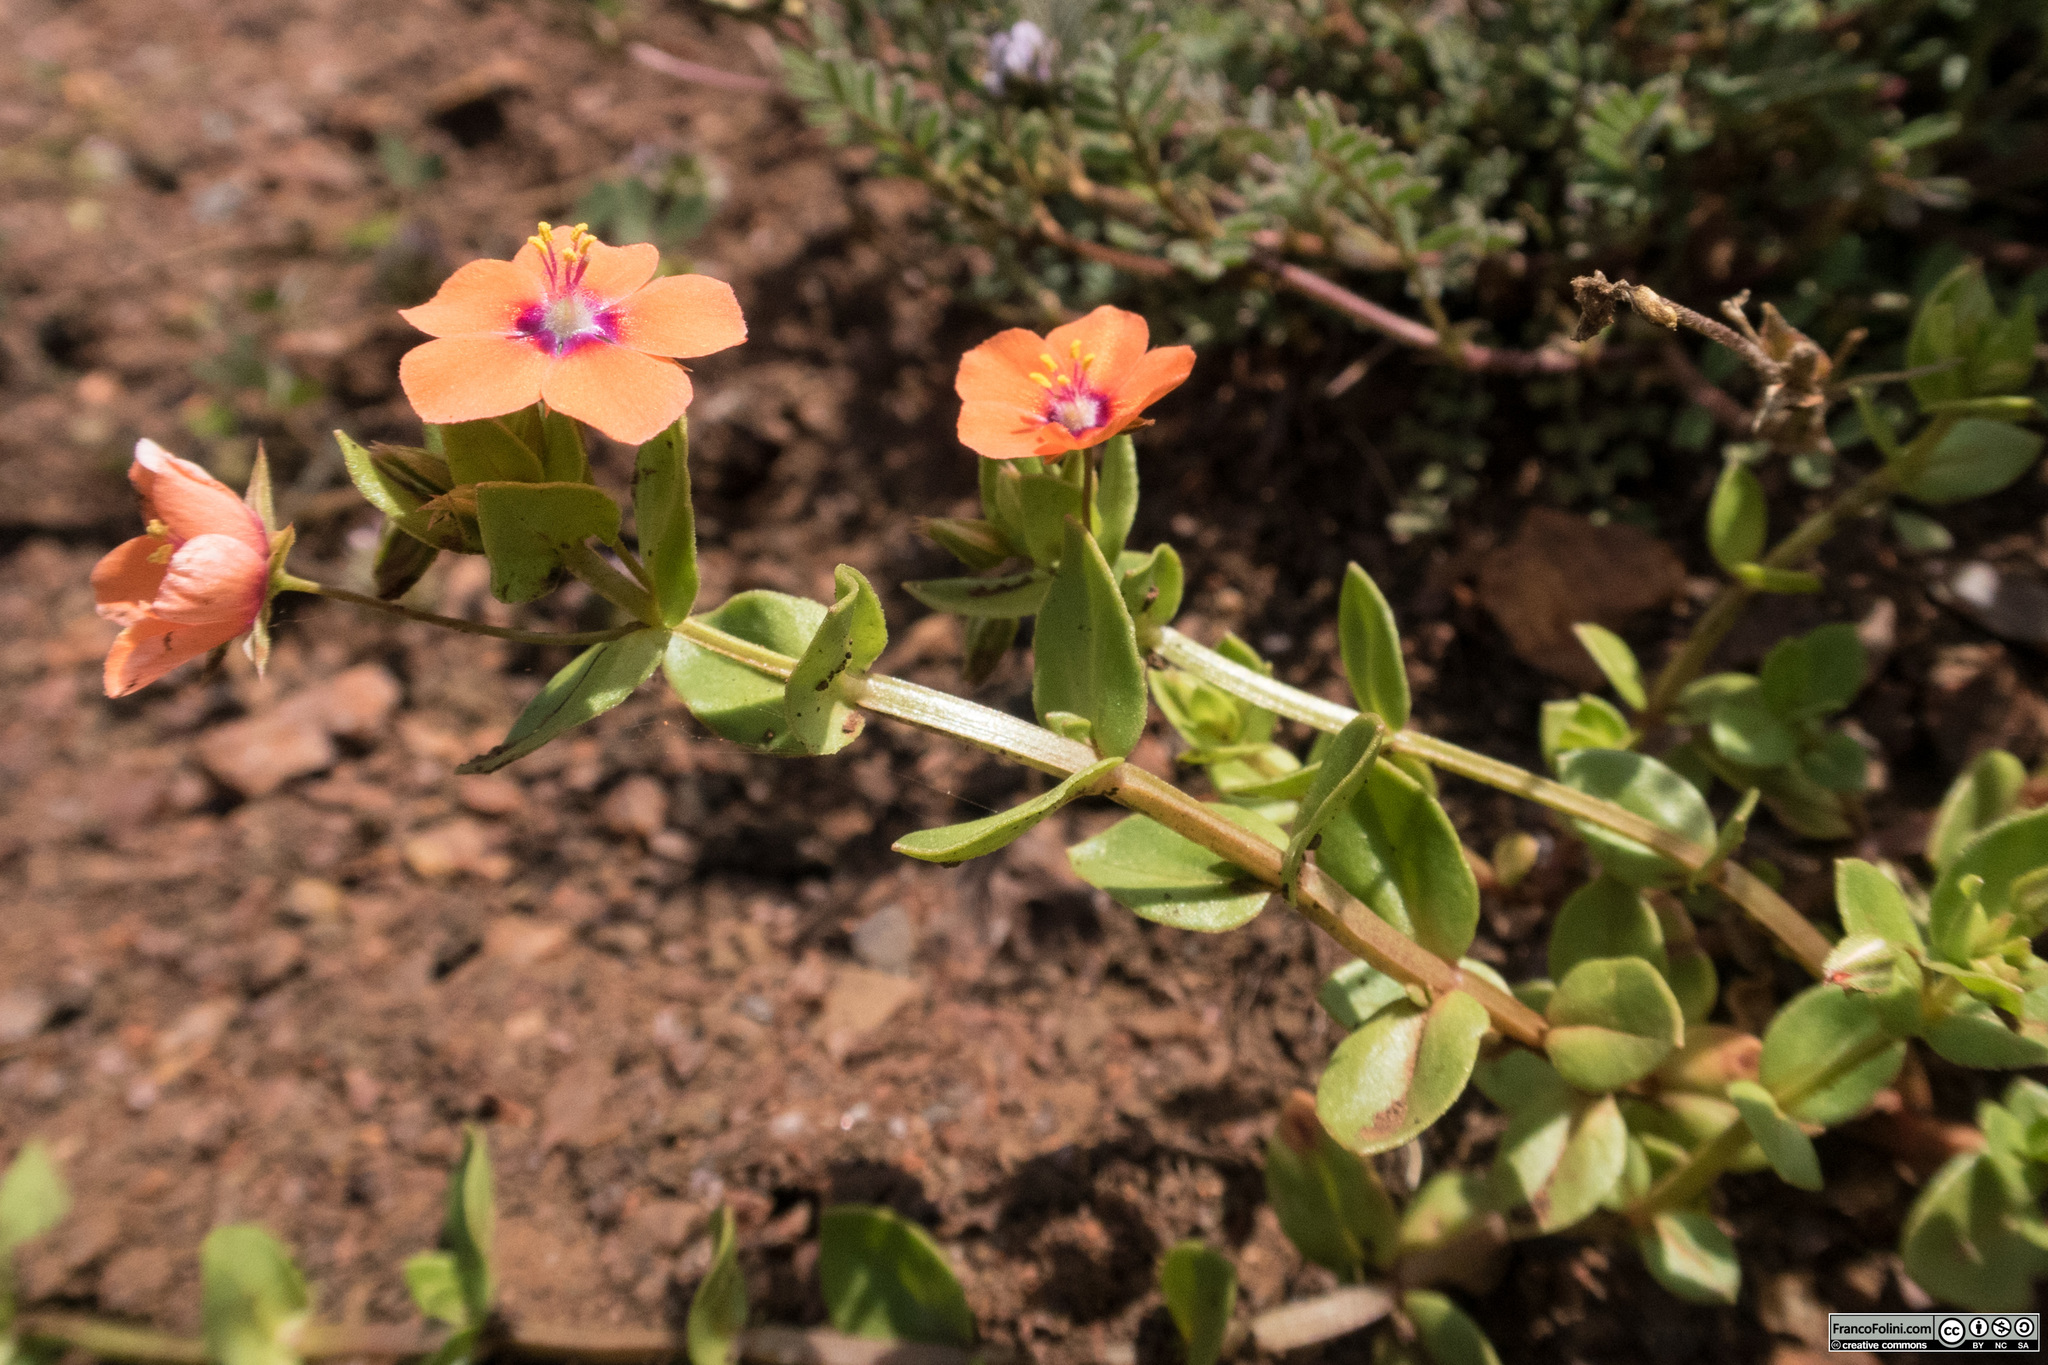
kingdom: Plantae
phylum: Tracheophyta
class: Magnoliopsida
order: Ericales
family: Primulaceae
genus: Lysimachia
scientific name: Lysimachia arvensis
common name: Scarlet pimpernel
